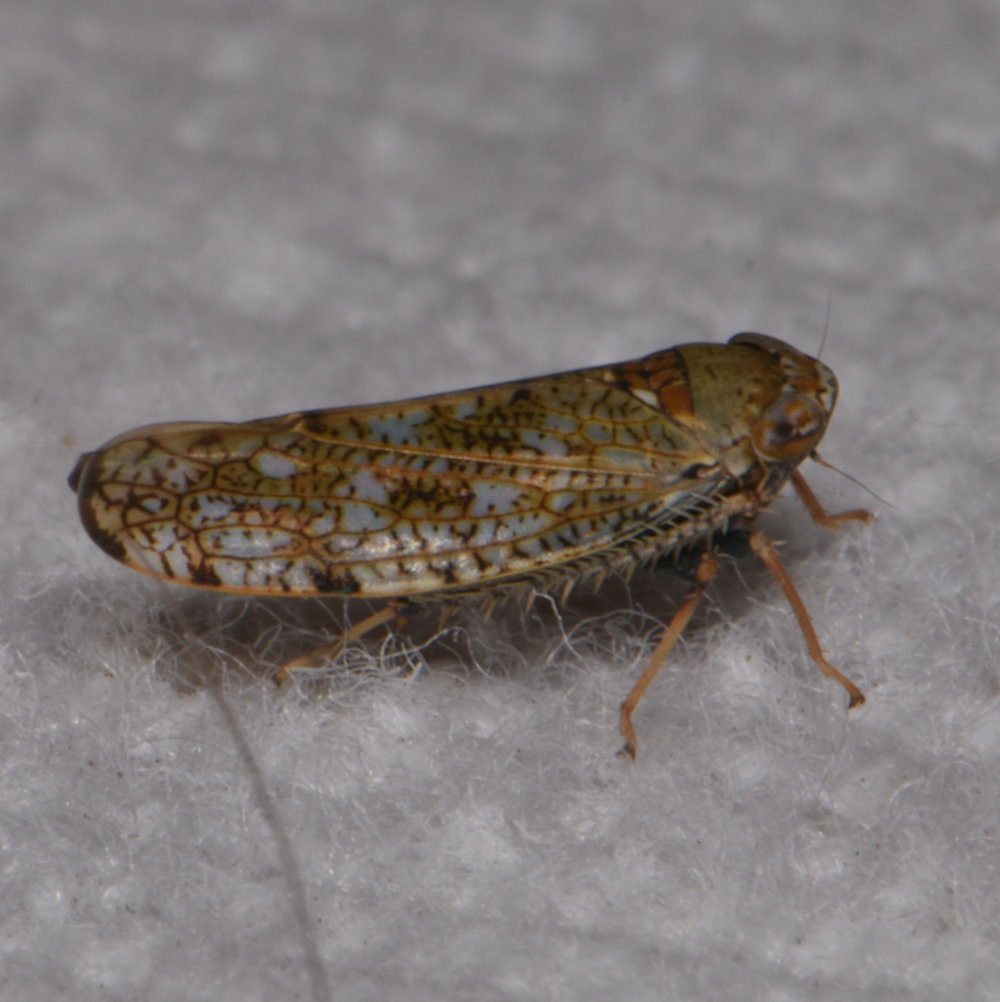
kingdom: Animalia
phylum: Arthropoda
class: Insecta
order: Hemiptera
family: Cicadellidae
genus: Orientus
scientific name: Orientus ishidae
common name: Japanese leafhopper
